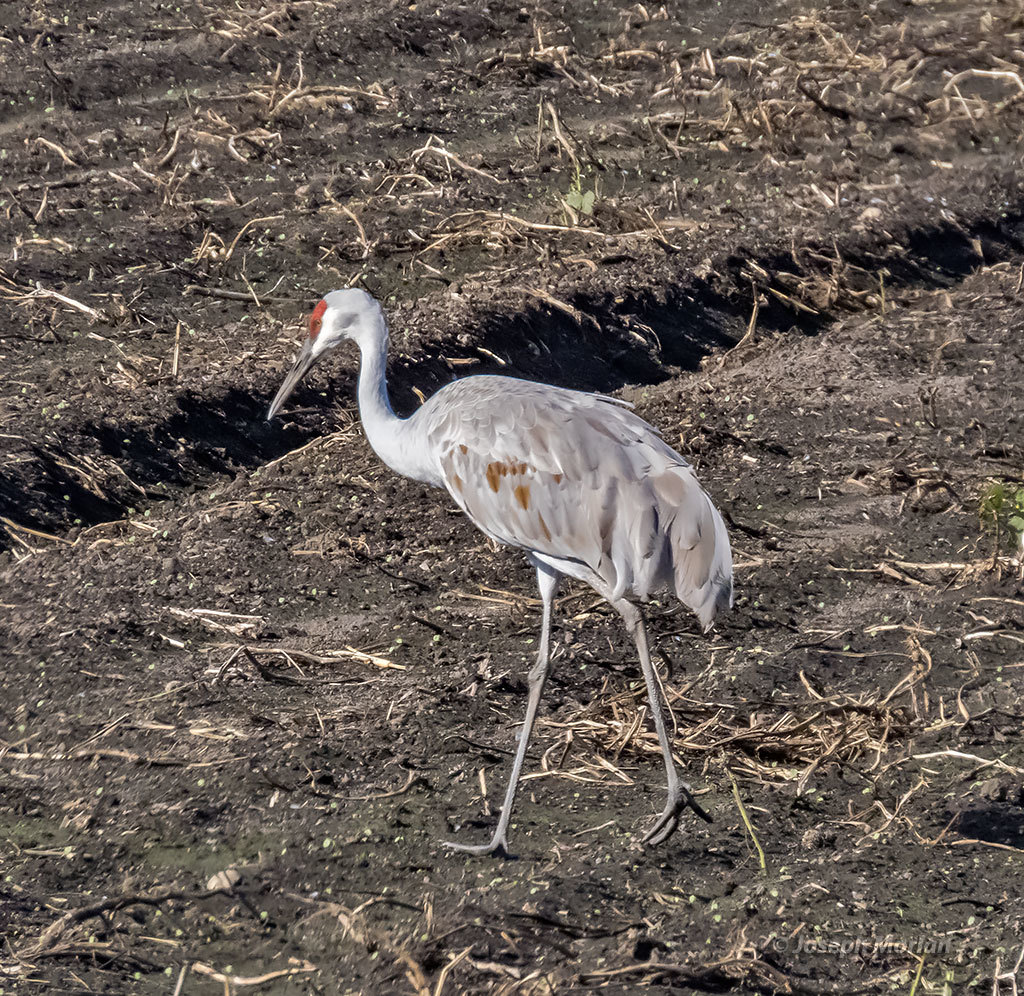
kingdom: Animalia
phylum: Chordata
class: Aves
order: Gruiformes
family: Gruidae
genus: Grus
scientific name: Grus canadensis
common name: Sandhill crane
